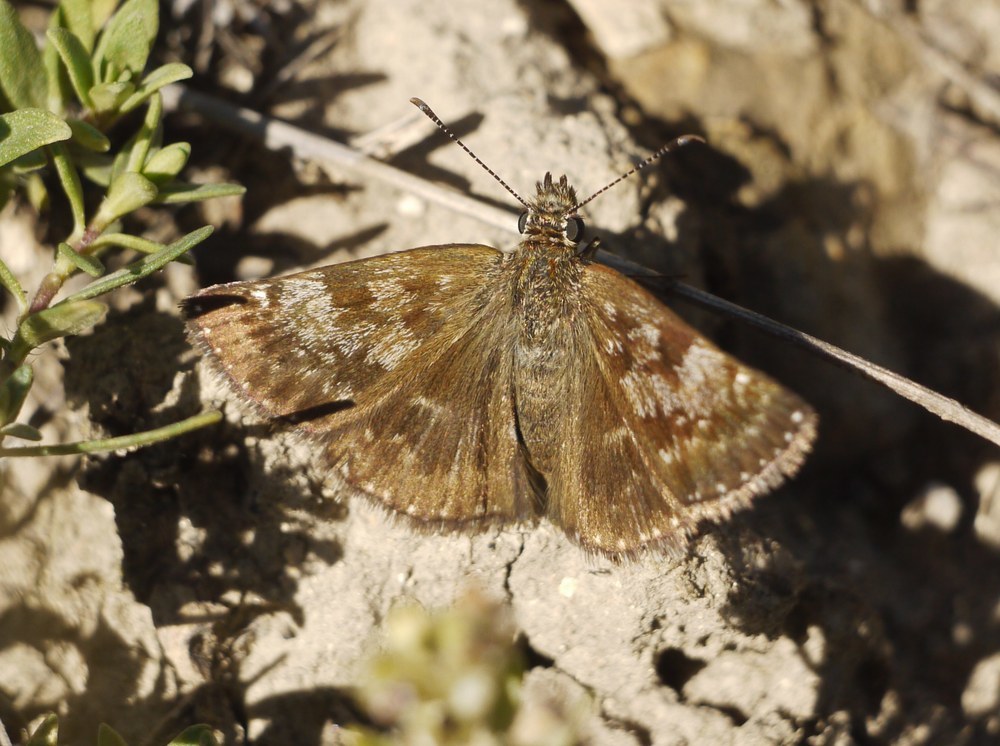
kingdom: Animalia
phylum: Arthropoda
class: Insecta
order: Lepidoptera
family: Hesperiidae
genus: Erynnis
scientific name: Erynnis tages
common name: Dingy skipper
